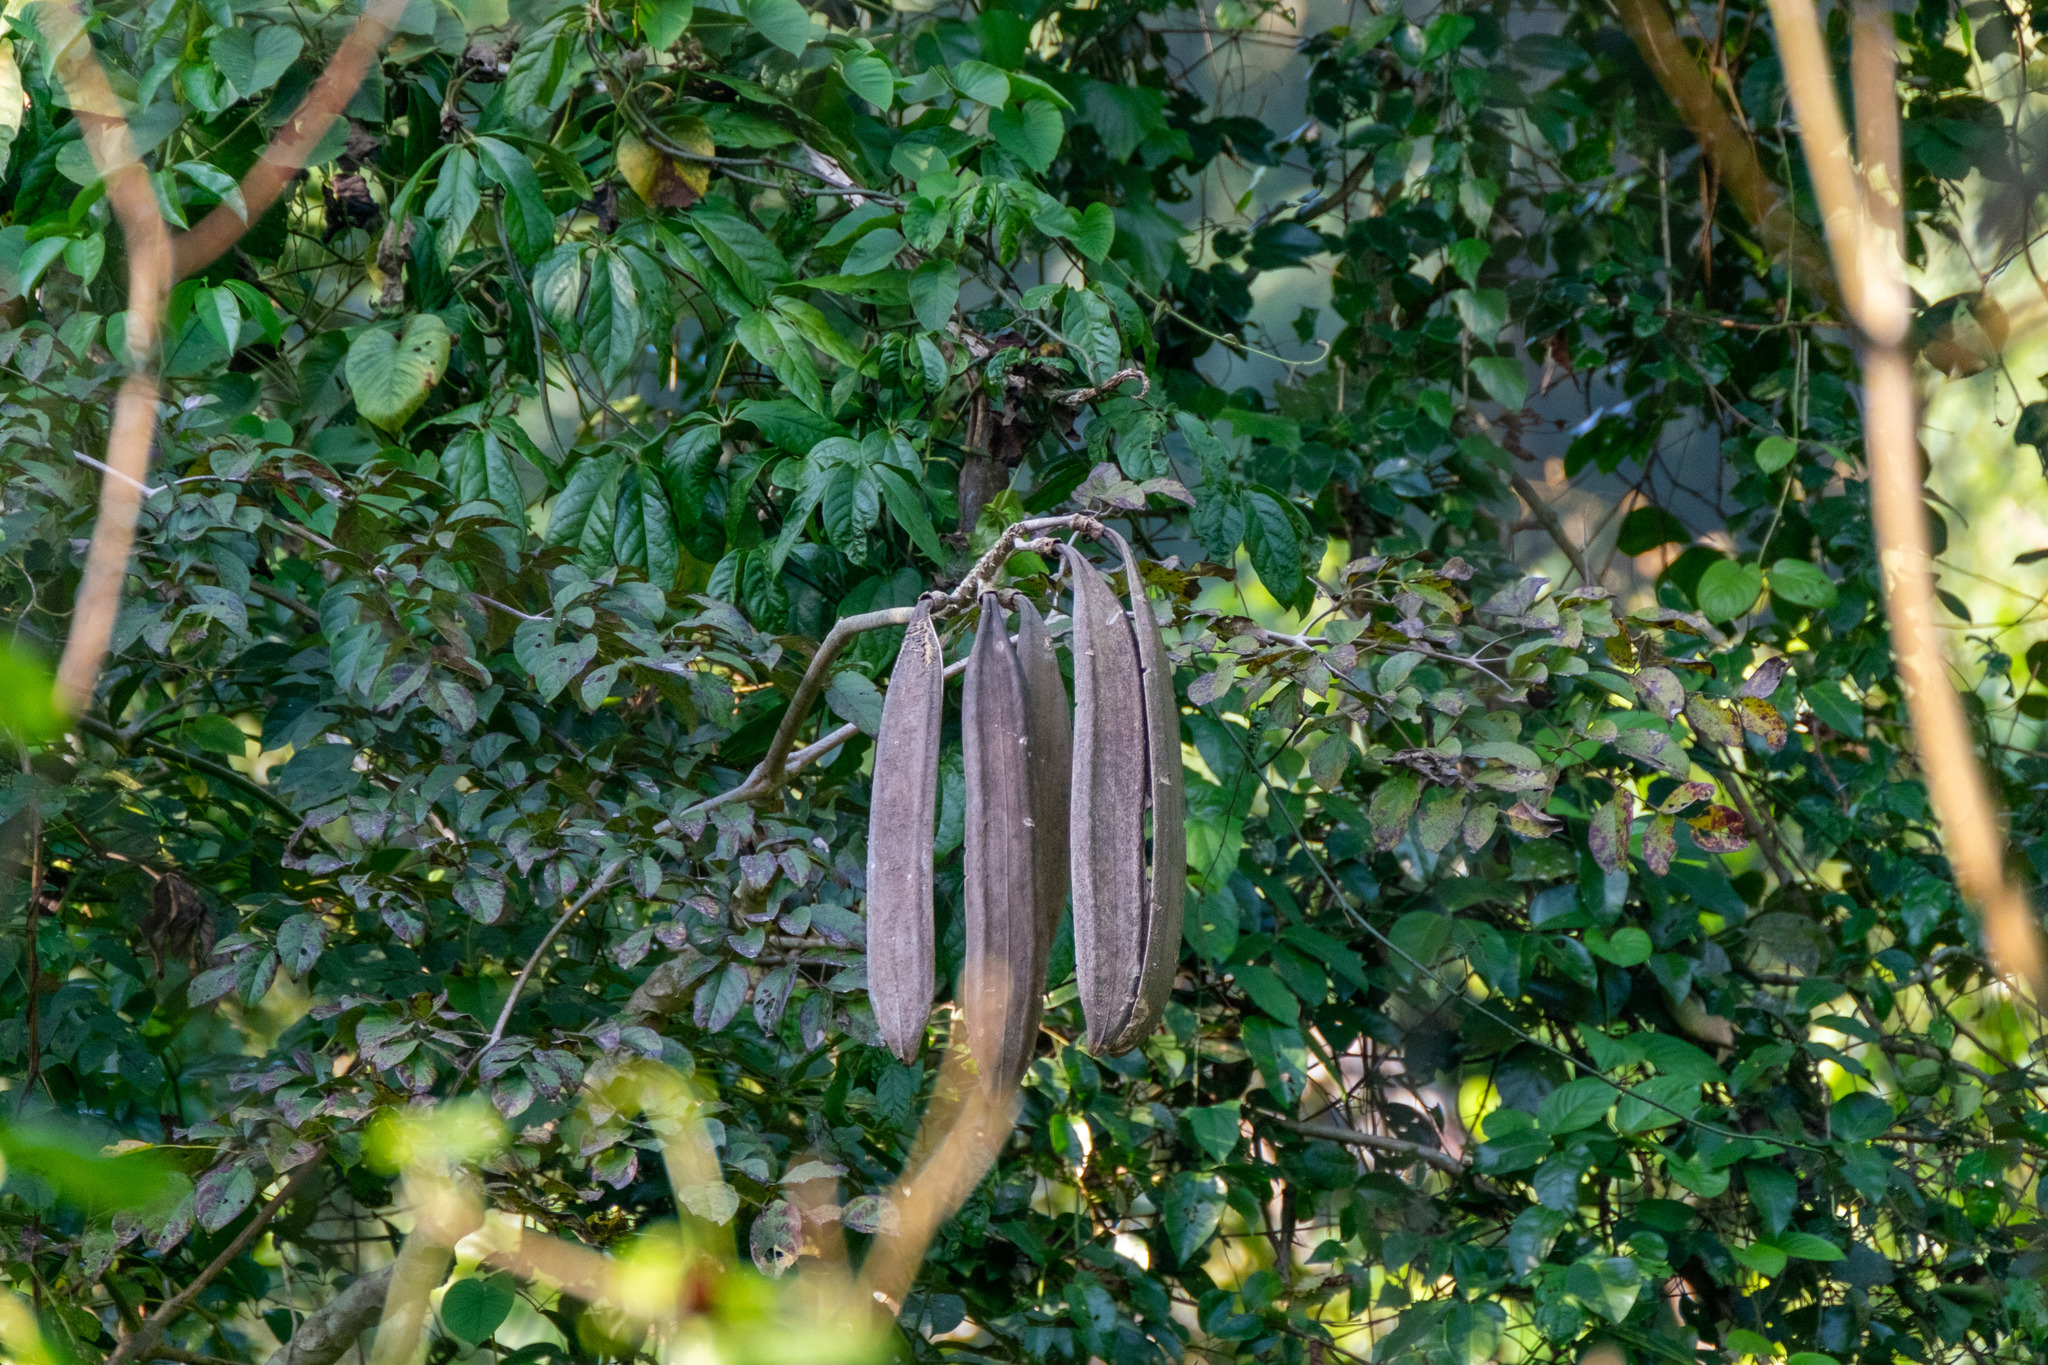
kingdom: Plantae
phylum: Tracheophyta
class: Magnoliopsida
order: Lamiales
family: Bignoniaceae
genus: Oroxylum
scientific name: Oroxylum indicum
